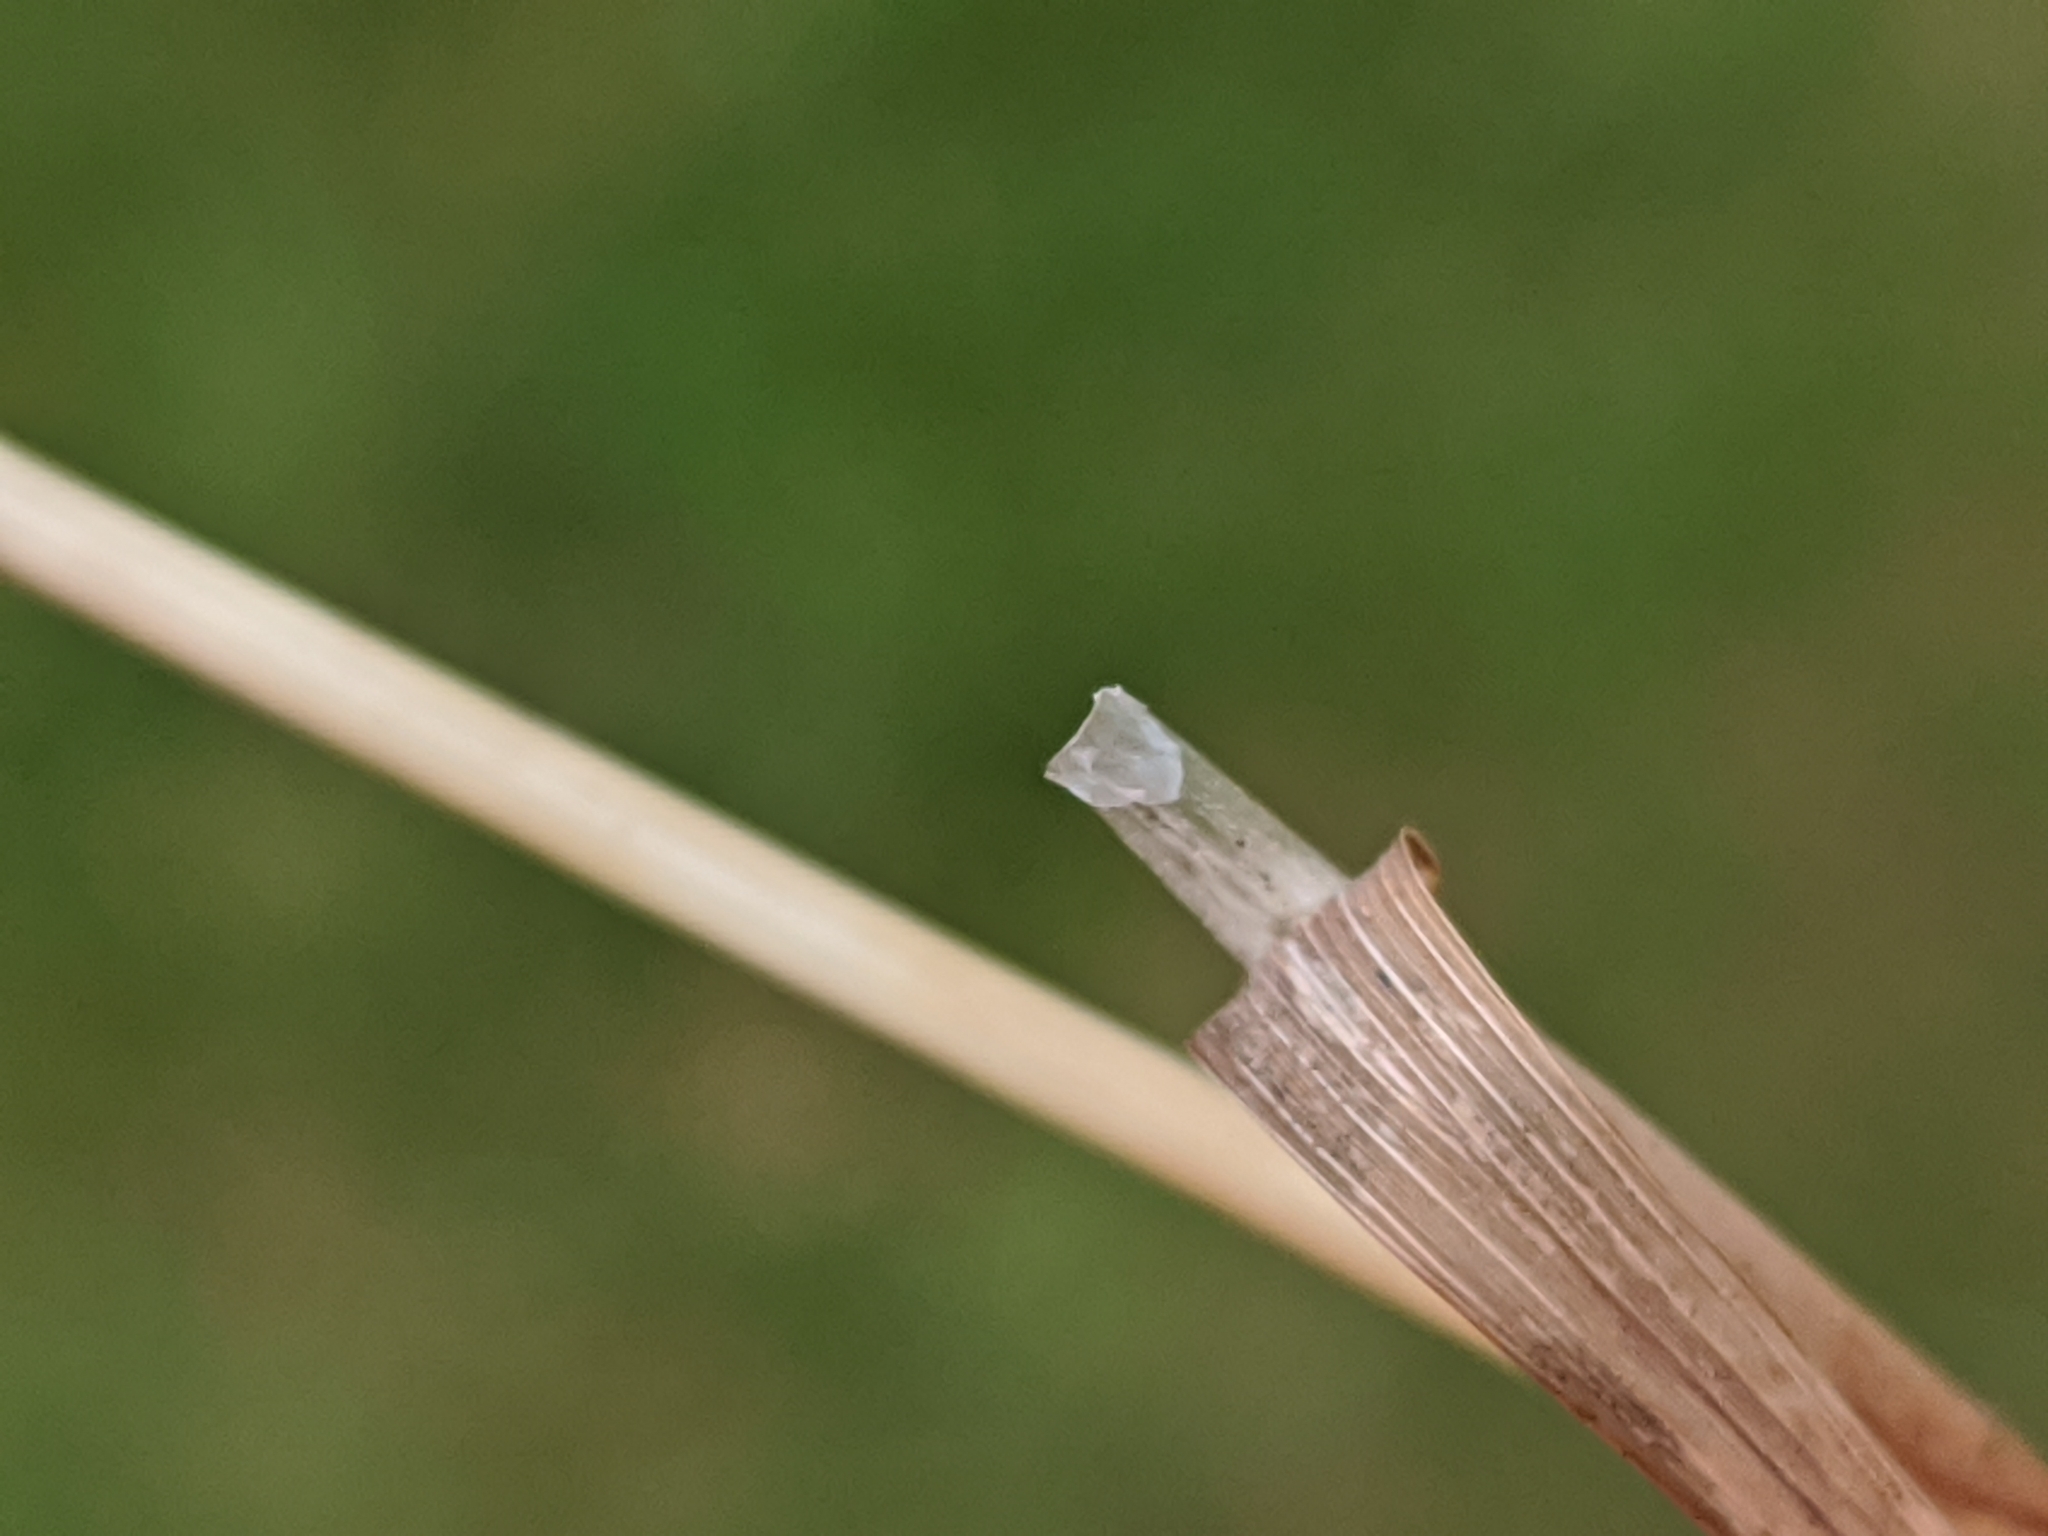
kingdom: Plantae
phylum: Tracheophyta
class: Liliopsida
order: Poales
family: Poaceae
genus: Poa
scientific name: Poa trivialis
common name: Rough bluegrass
